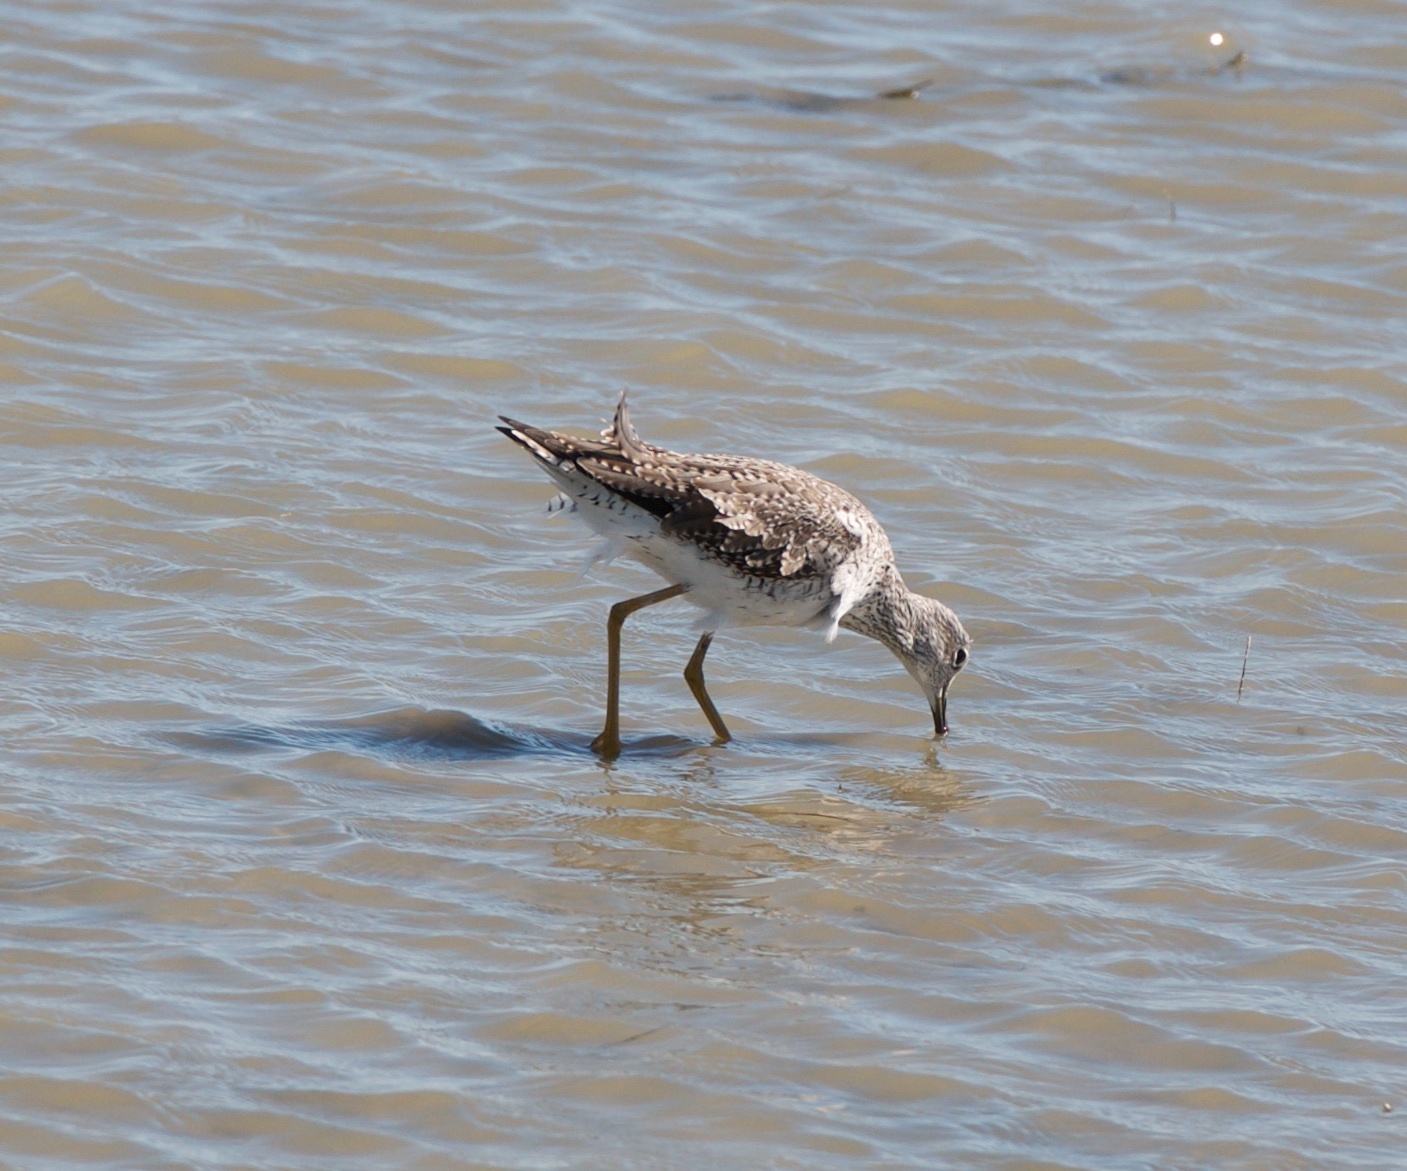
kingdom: Animalia
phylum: Chordata
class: Aves
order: Charadriiformes
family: Scolopacidae
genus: Tringa
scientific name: Tringa melanoleuca
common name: Greater yellowlegs
